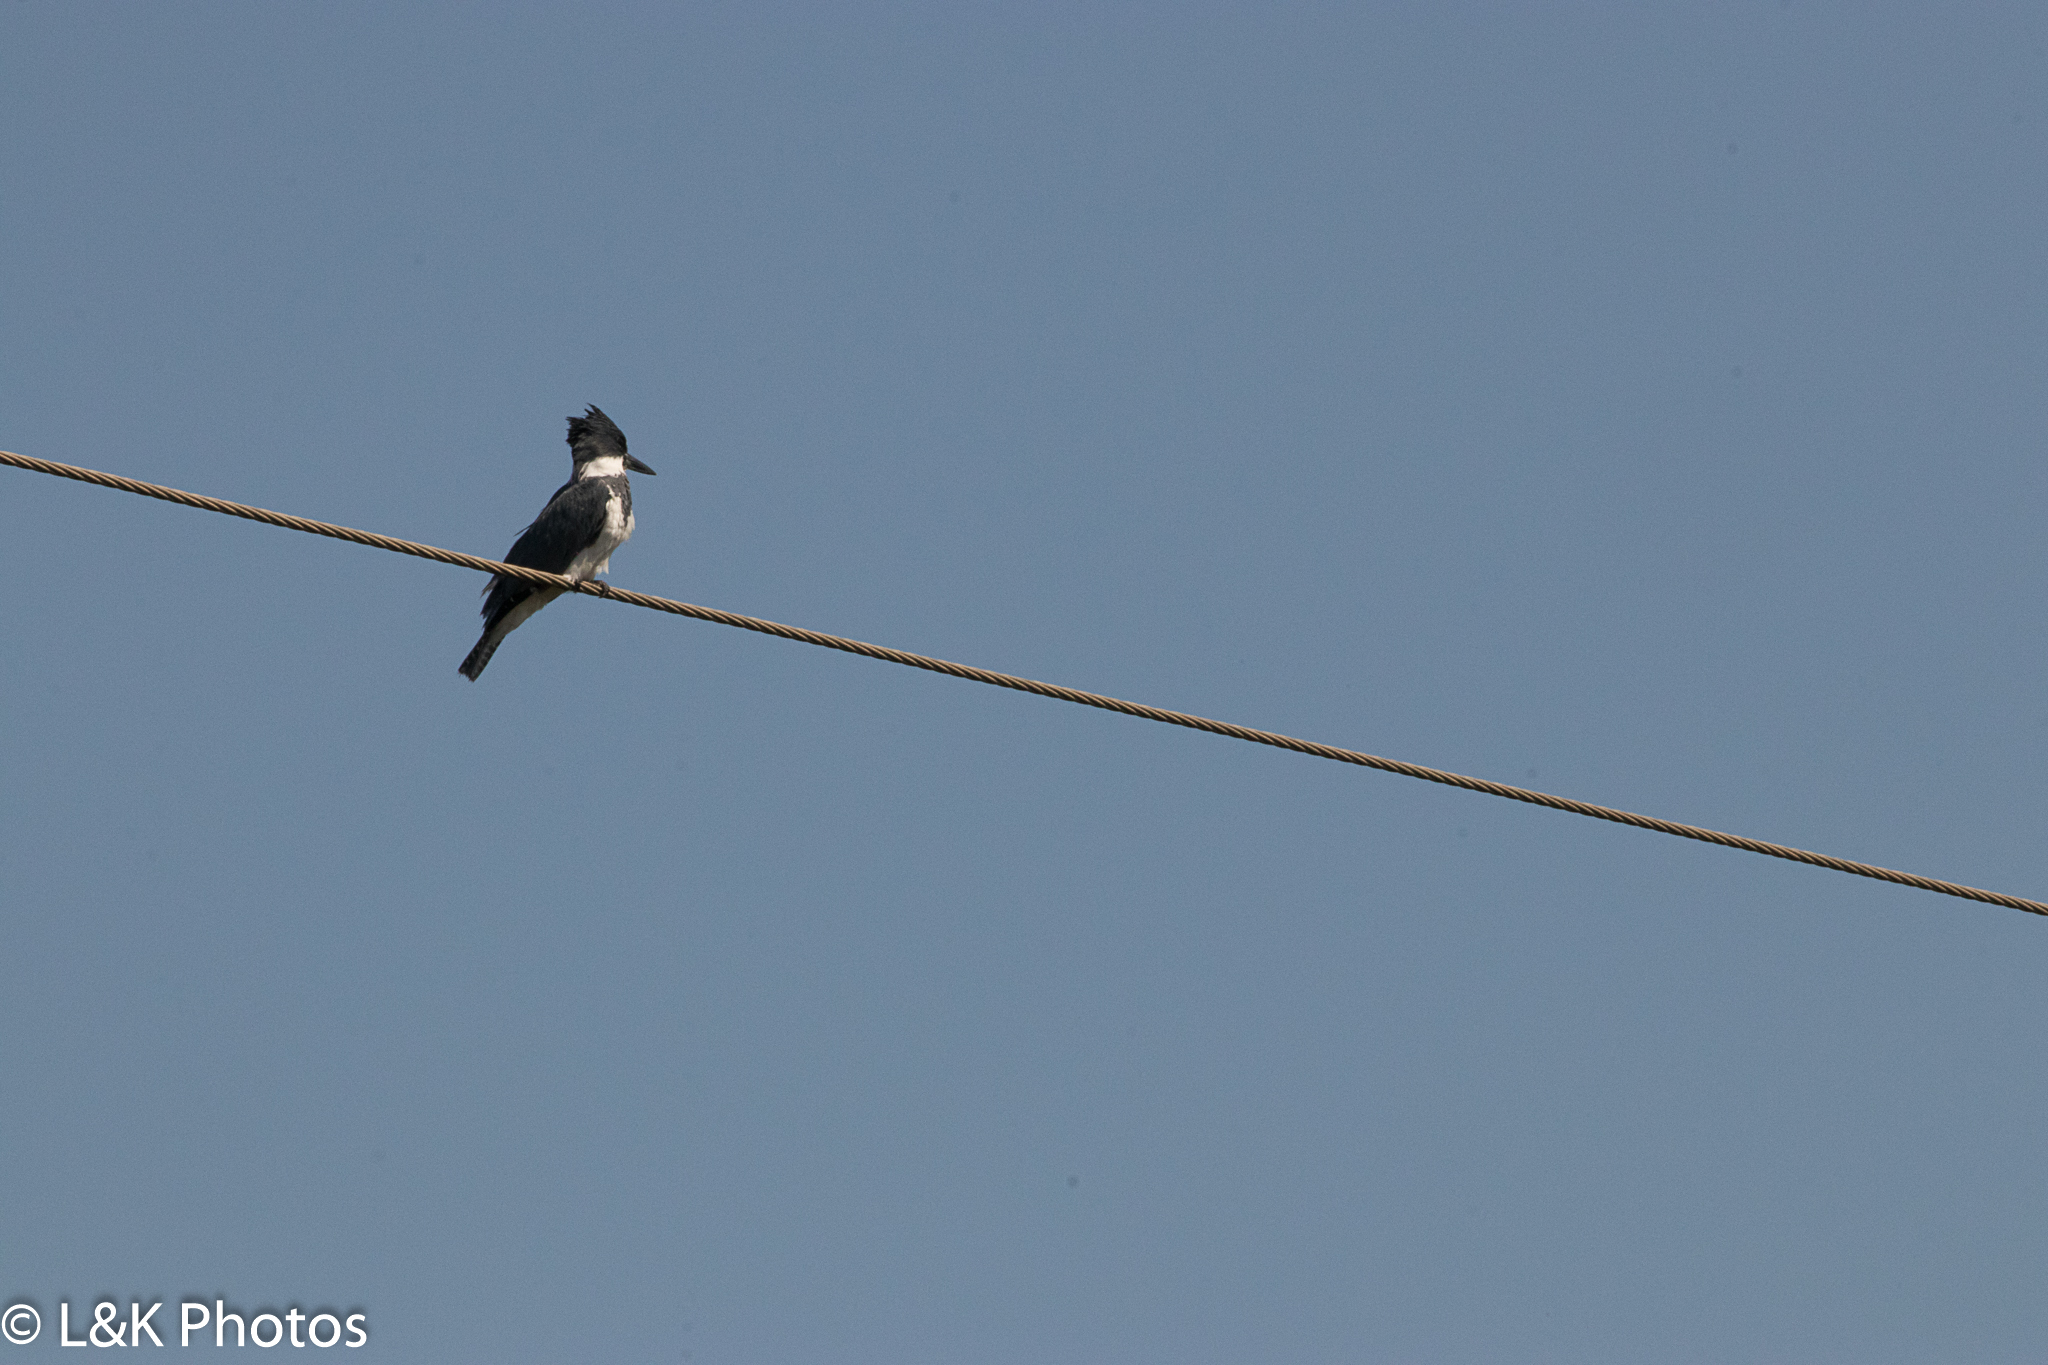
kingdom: Animalia
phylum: Chordata
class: Aves
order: Coraciiformes
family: Alcedinidae
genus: Megaceryle
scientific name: Megaceryle alcyon
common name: Belted kingfisher
